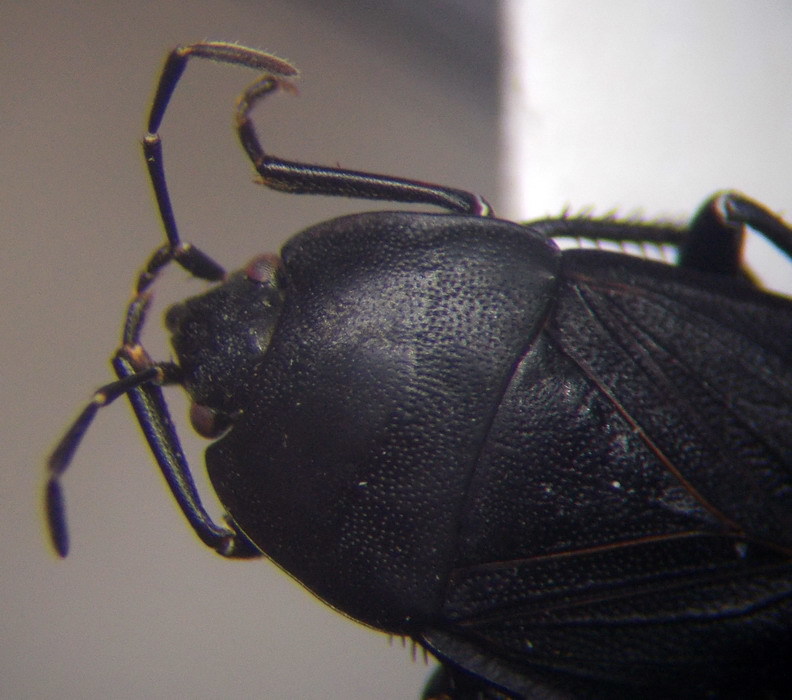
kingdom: Animalia
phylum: Arthropoda
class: Insecta
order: Hemiptera
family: Rhyparochromidae
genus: Aellopus
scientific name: Aellopus atratus
